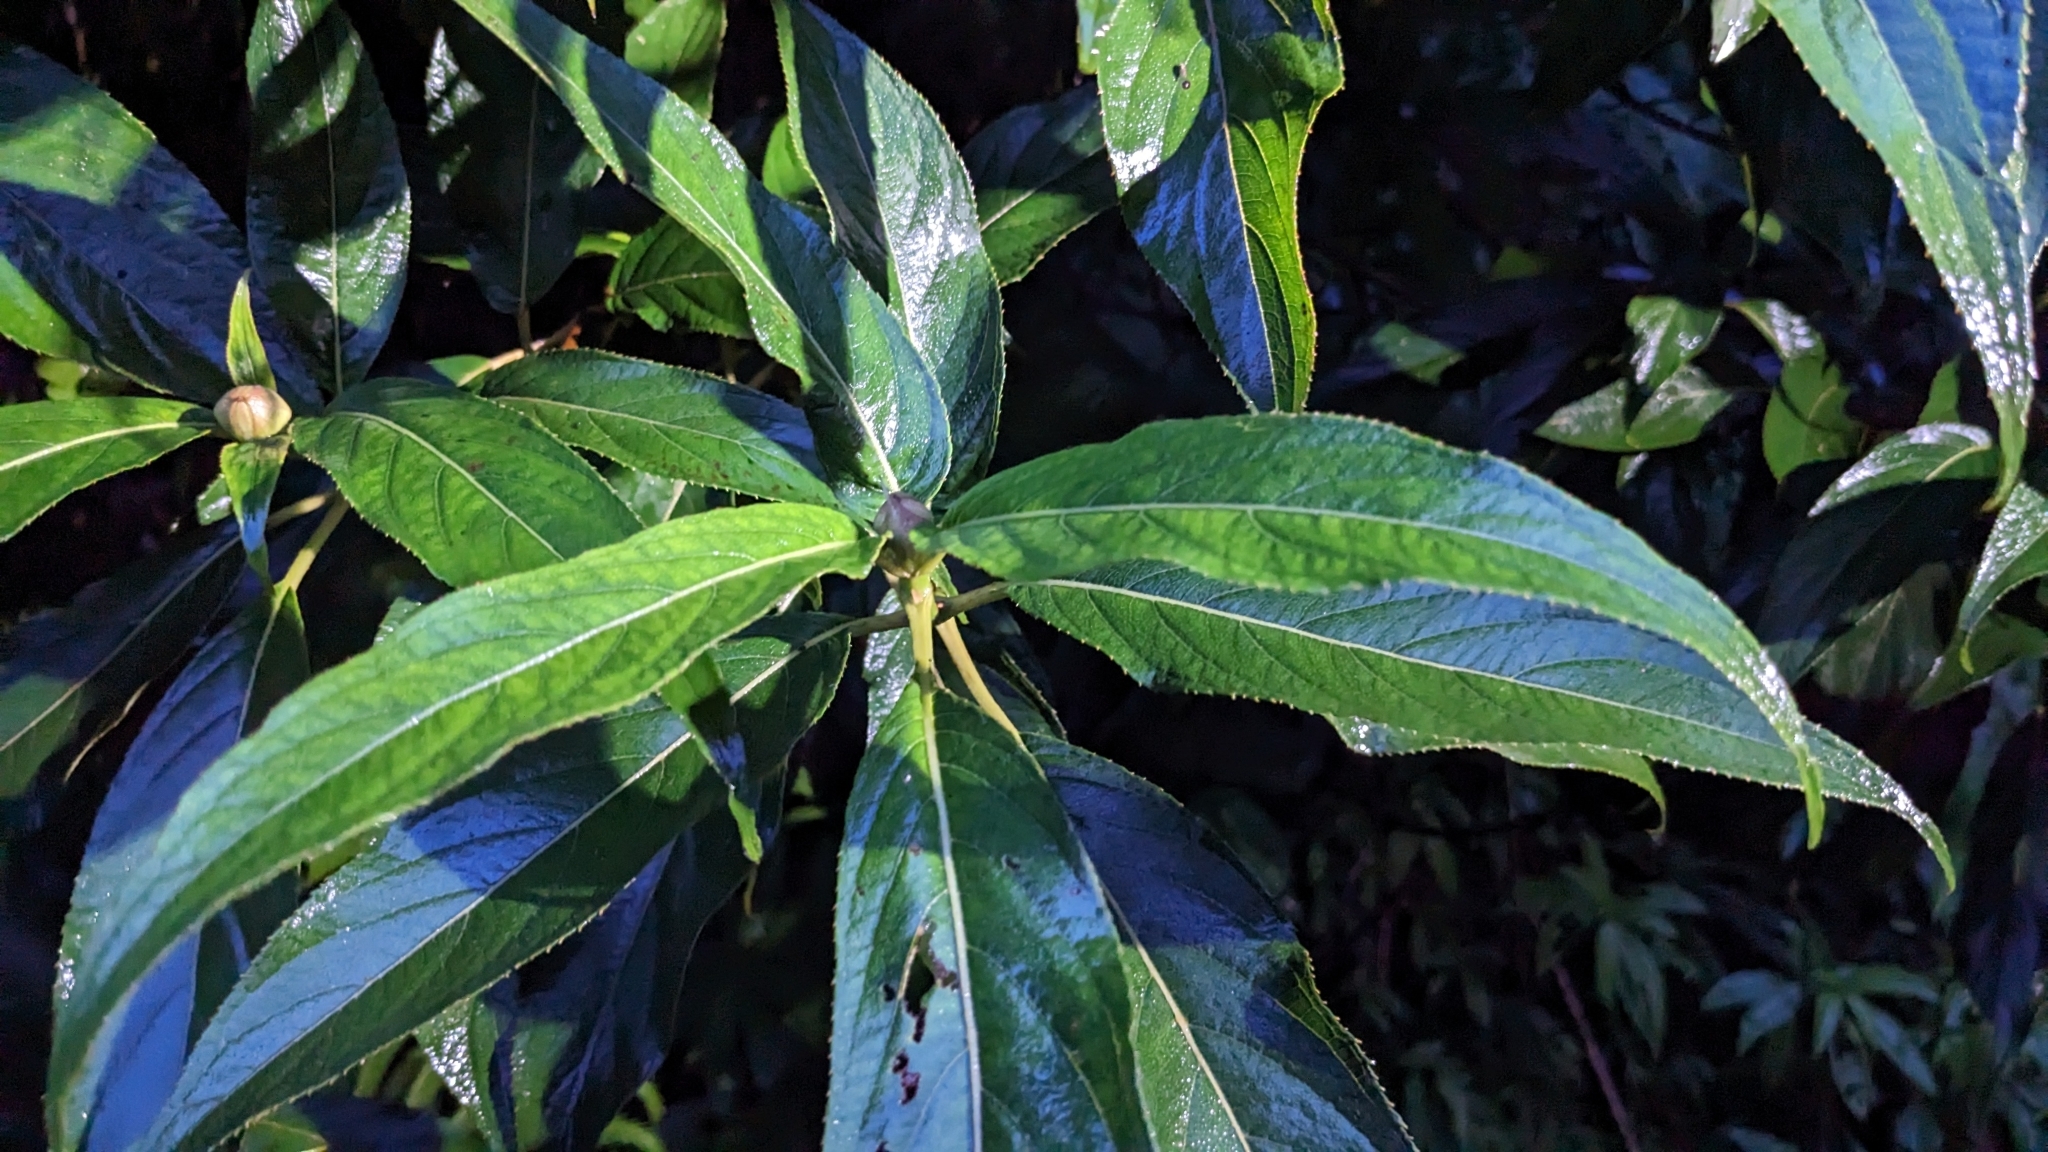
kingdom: Plantae
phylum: Tracheophyta
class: Magnoliopsida
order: Cornales
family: Hydrangeaceae
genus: Hydrangea
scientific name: Hydrangea longifolia
